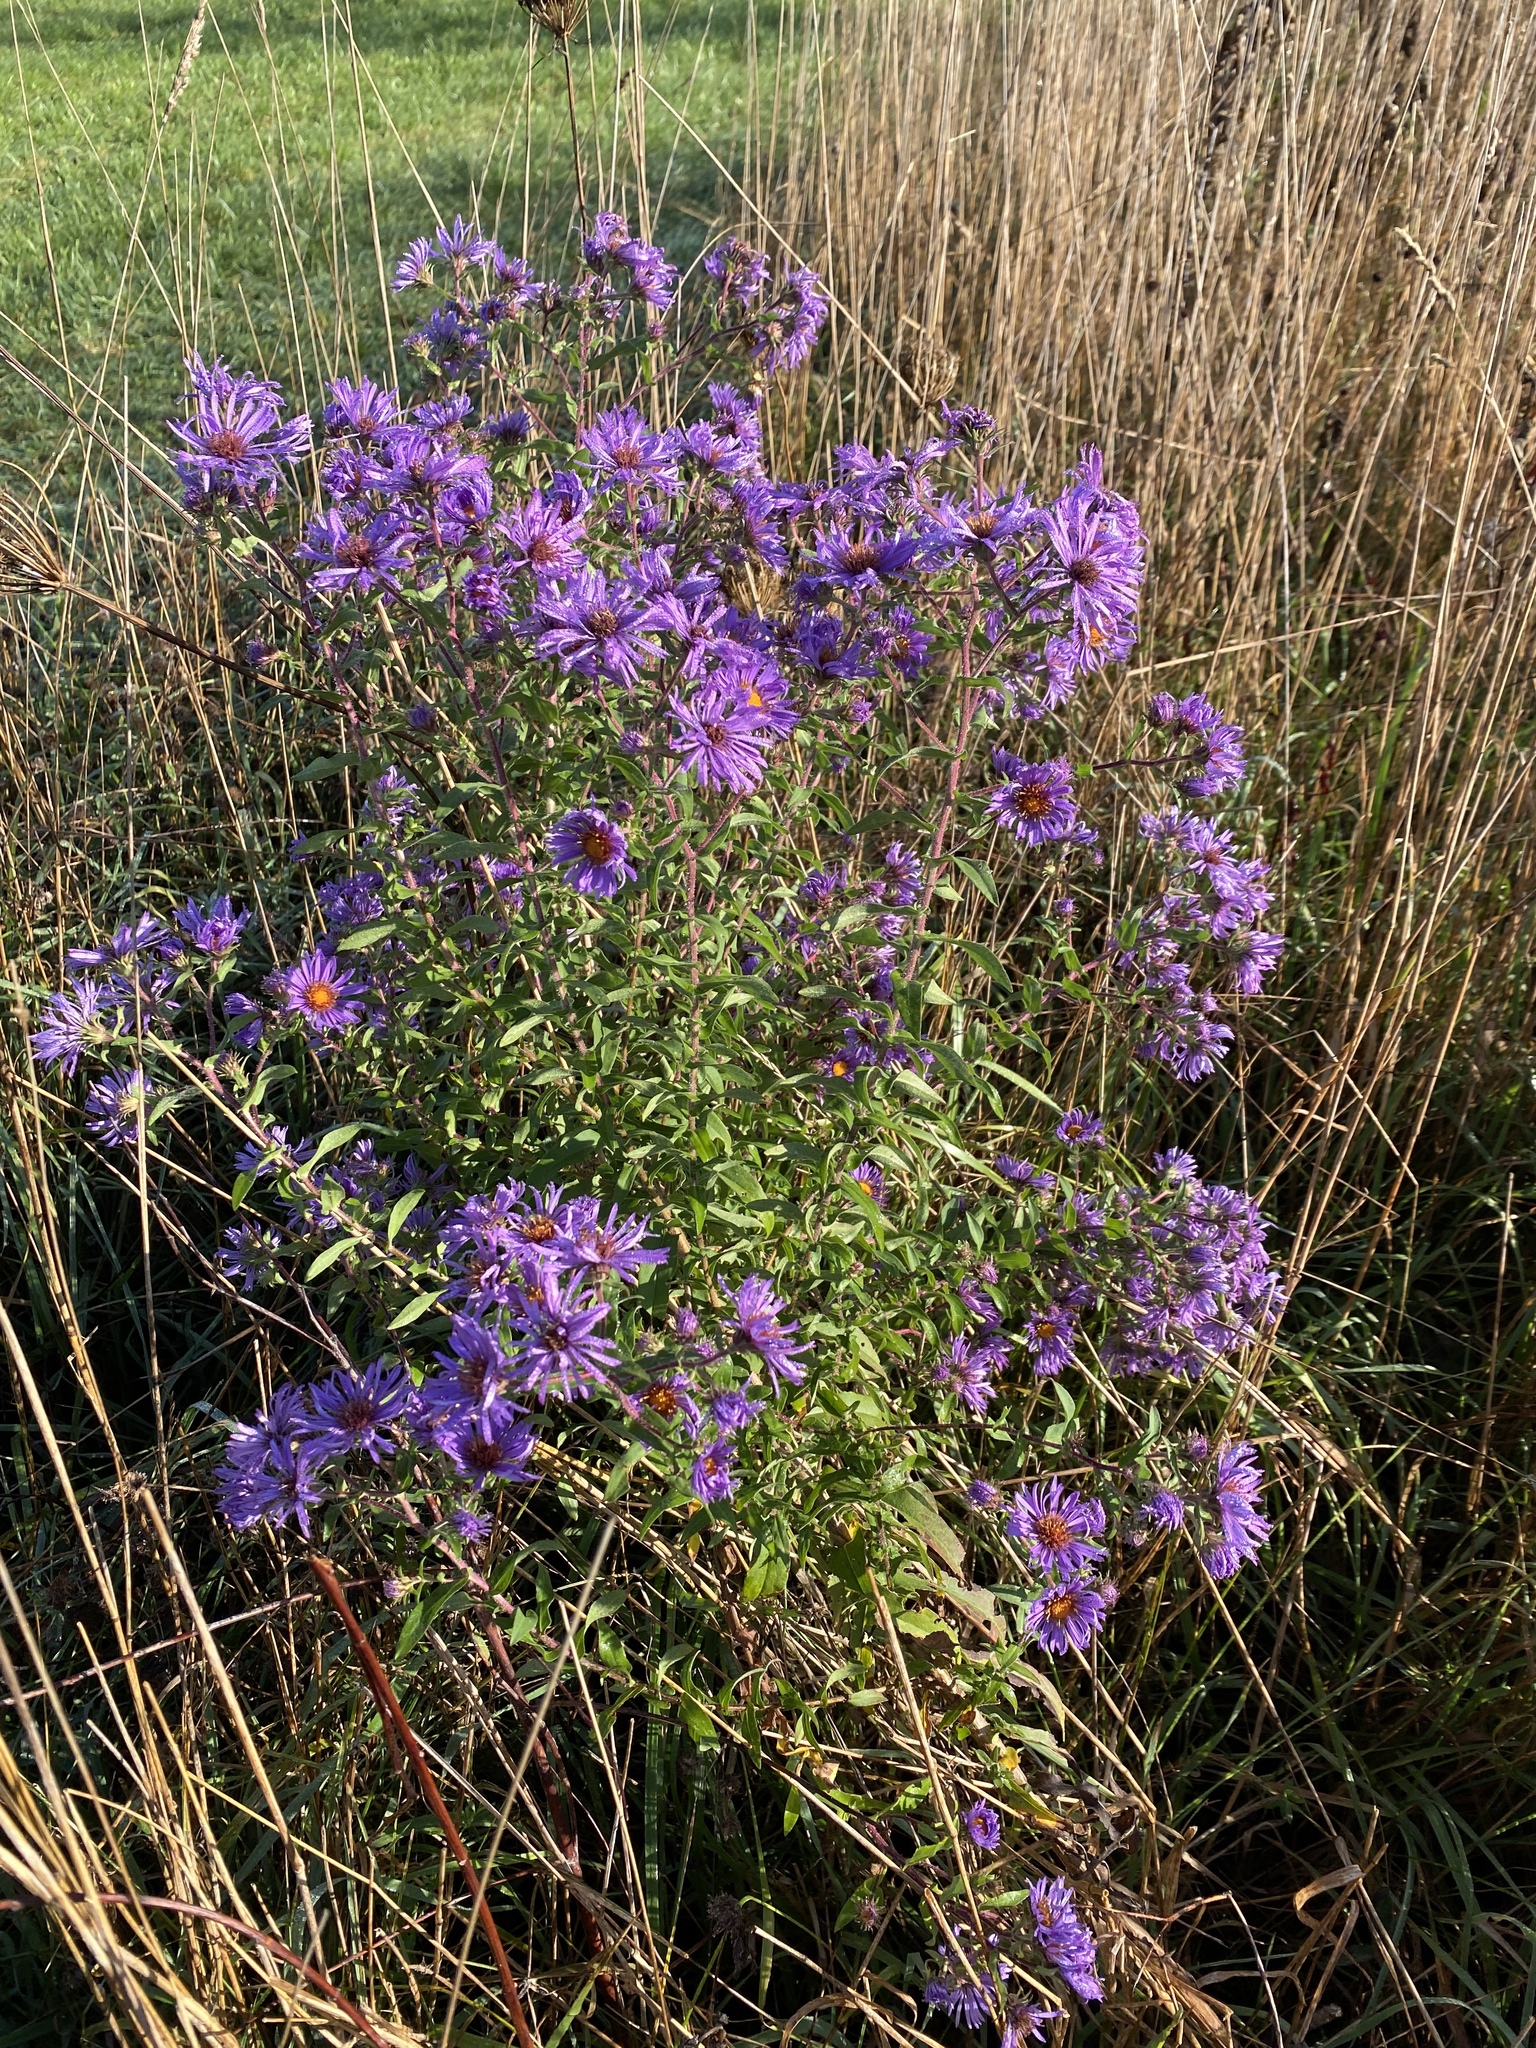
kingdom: Plantae
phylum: Tracheophyta
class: Magnoliopsida
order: Asterales
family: Asteraceae
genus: Symphyotrichum
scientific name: Symphyotrichum novae-angliae
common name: Michaelmas daisy
